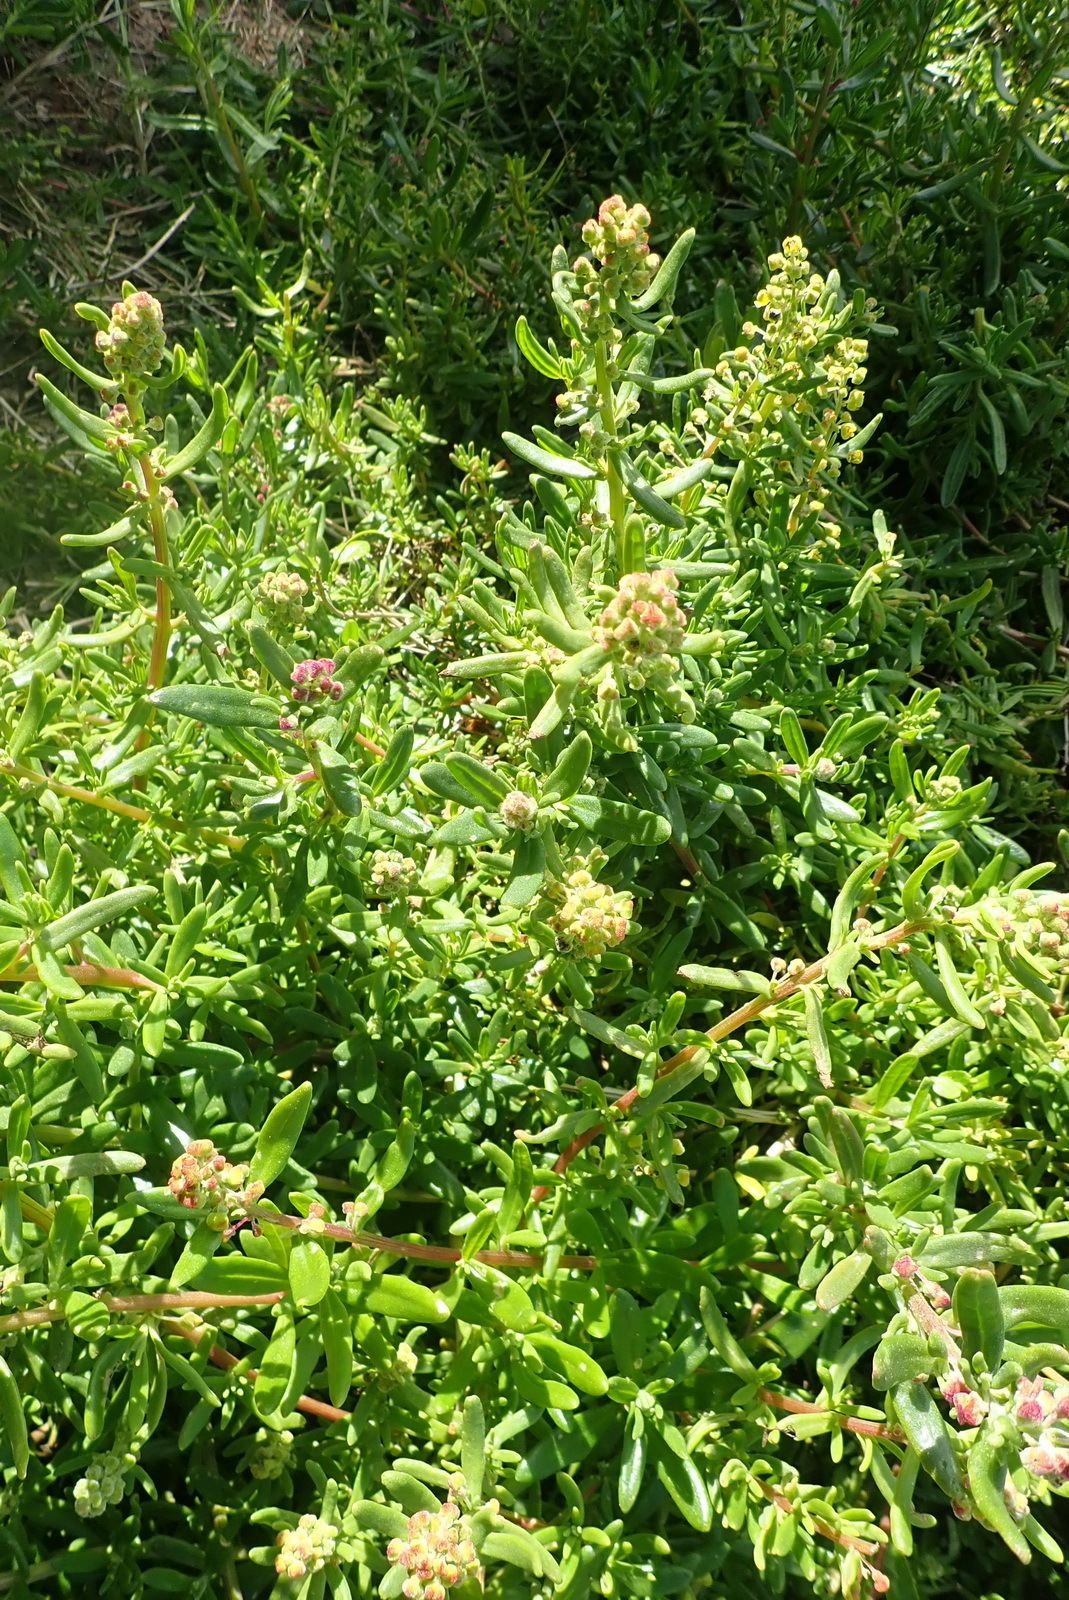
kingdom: Plantae
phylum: Tracheophyta
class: Magnoliopsida
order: Caryophyllales
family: Aizoaceae
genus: Tetragonia
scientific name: Tetragonia fruticosa
